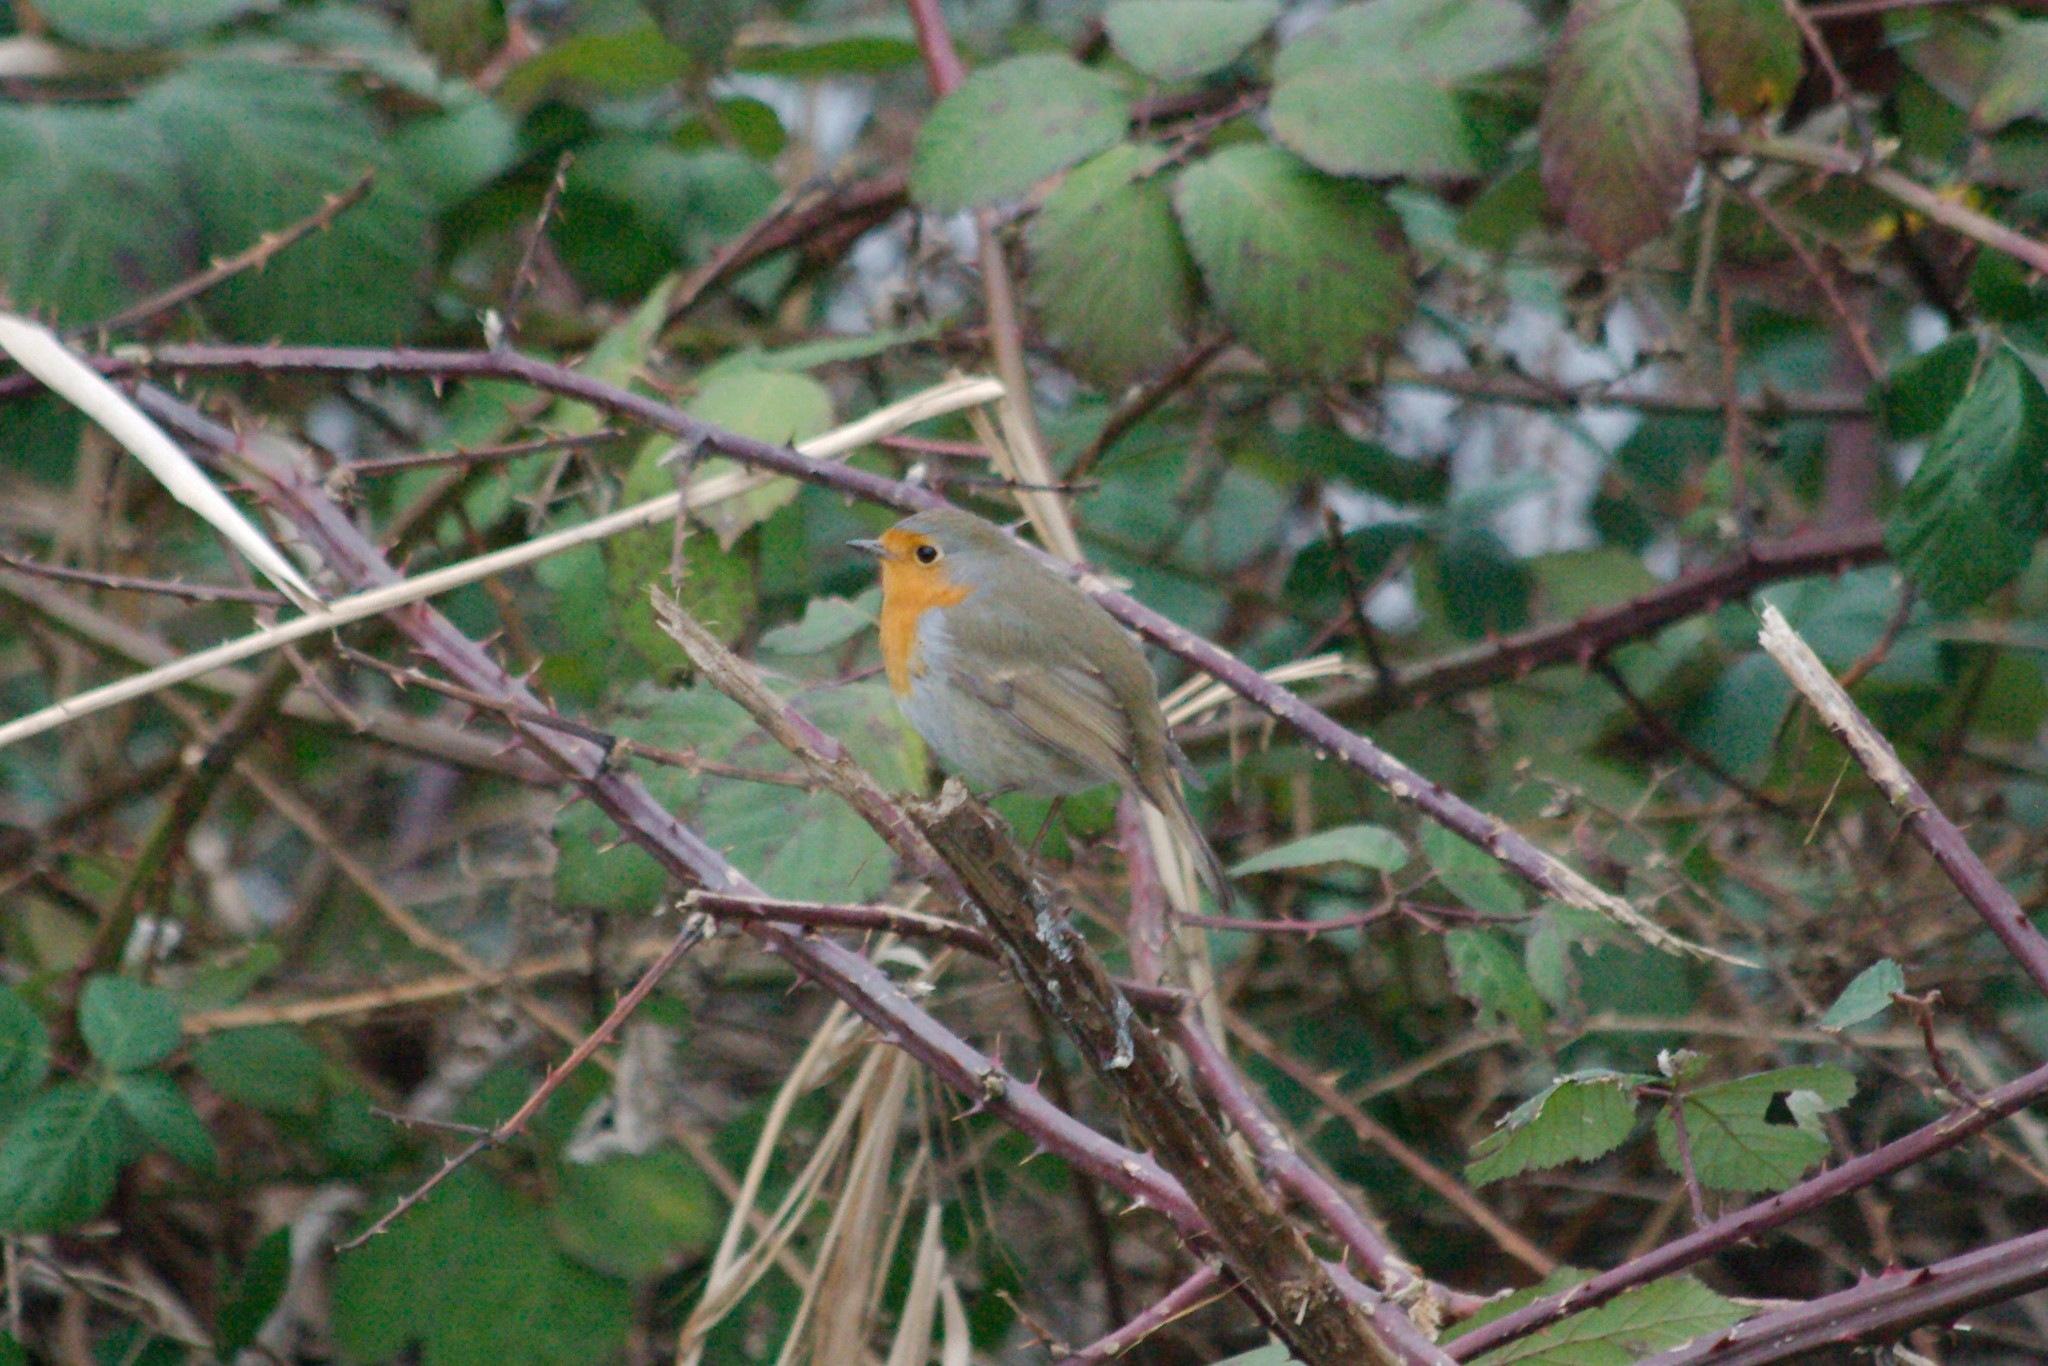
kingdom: Animalia
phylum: Chordata
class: Aves
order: Passeriformes
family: Muscicapidae
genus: Erithacus
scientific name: Erithacus rubecula
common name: European robin
